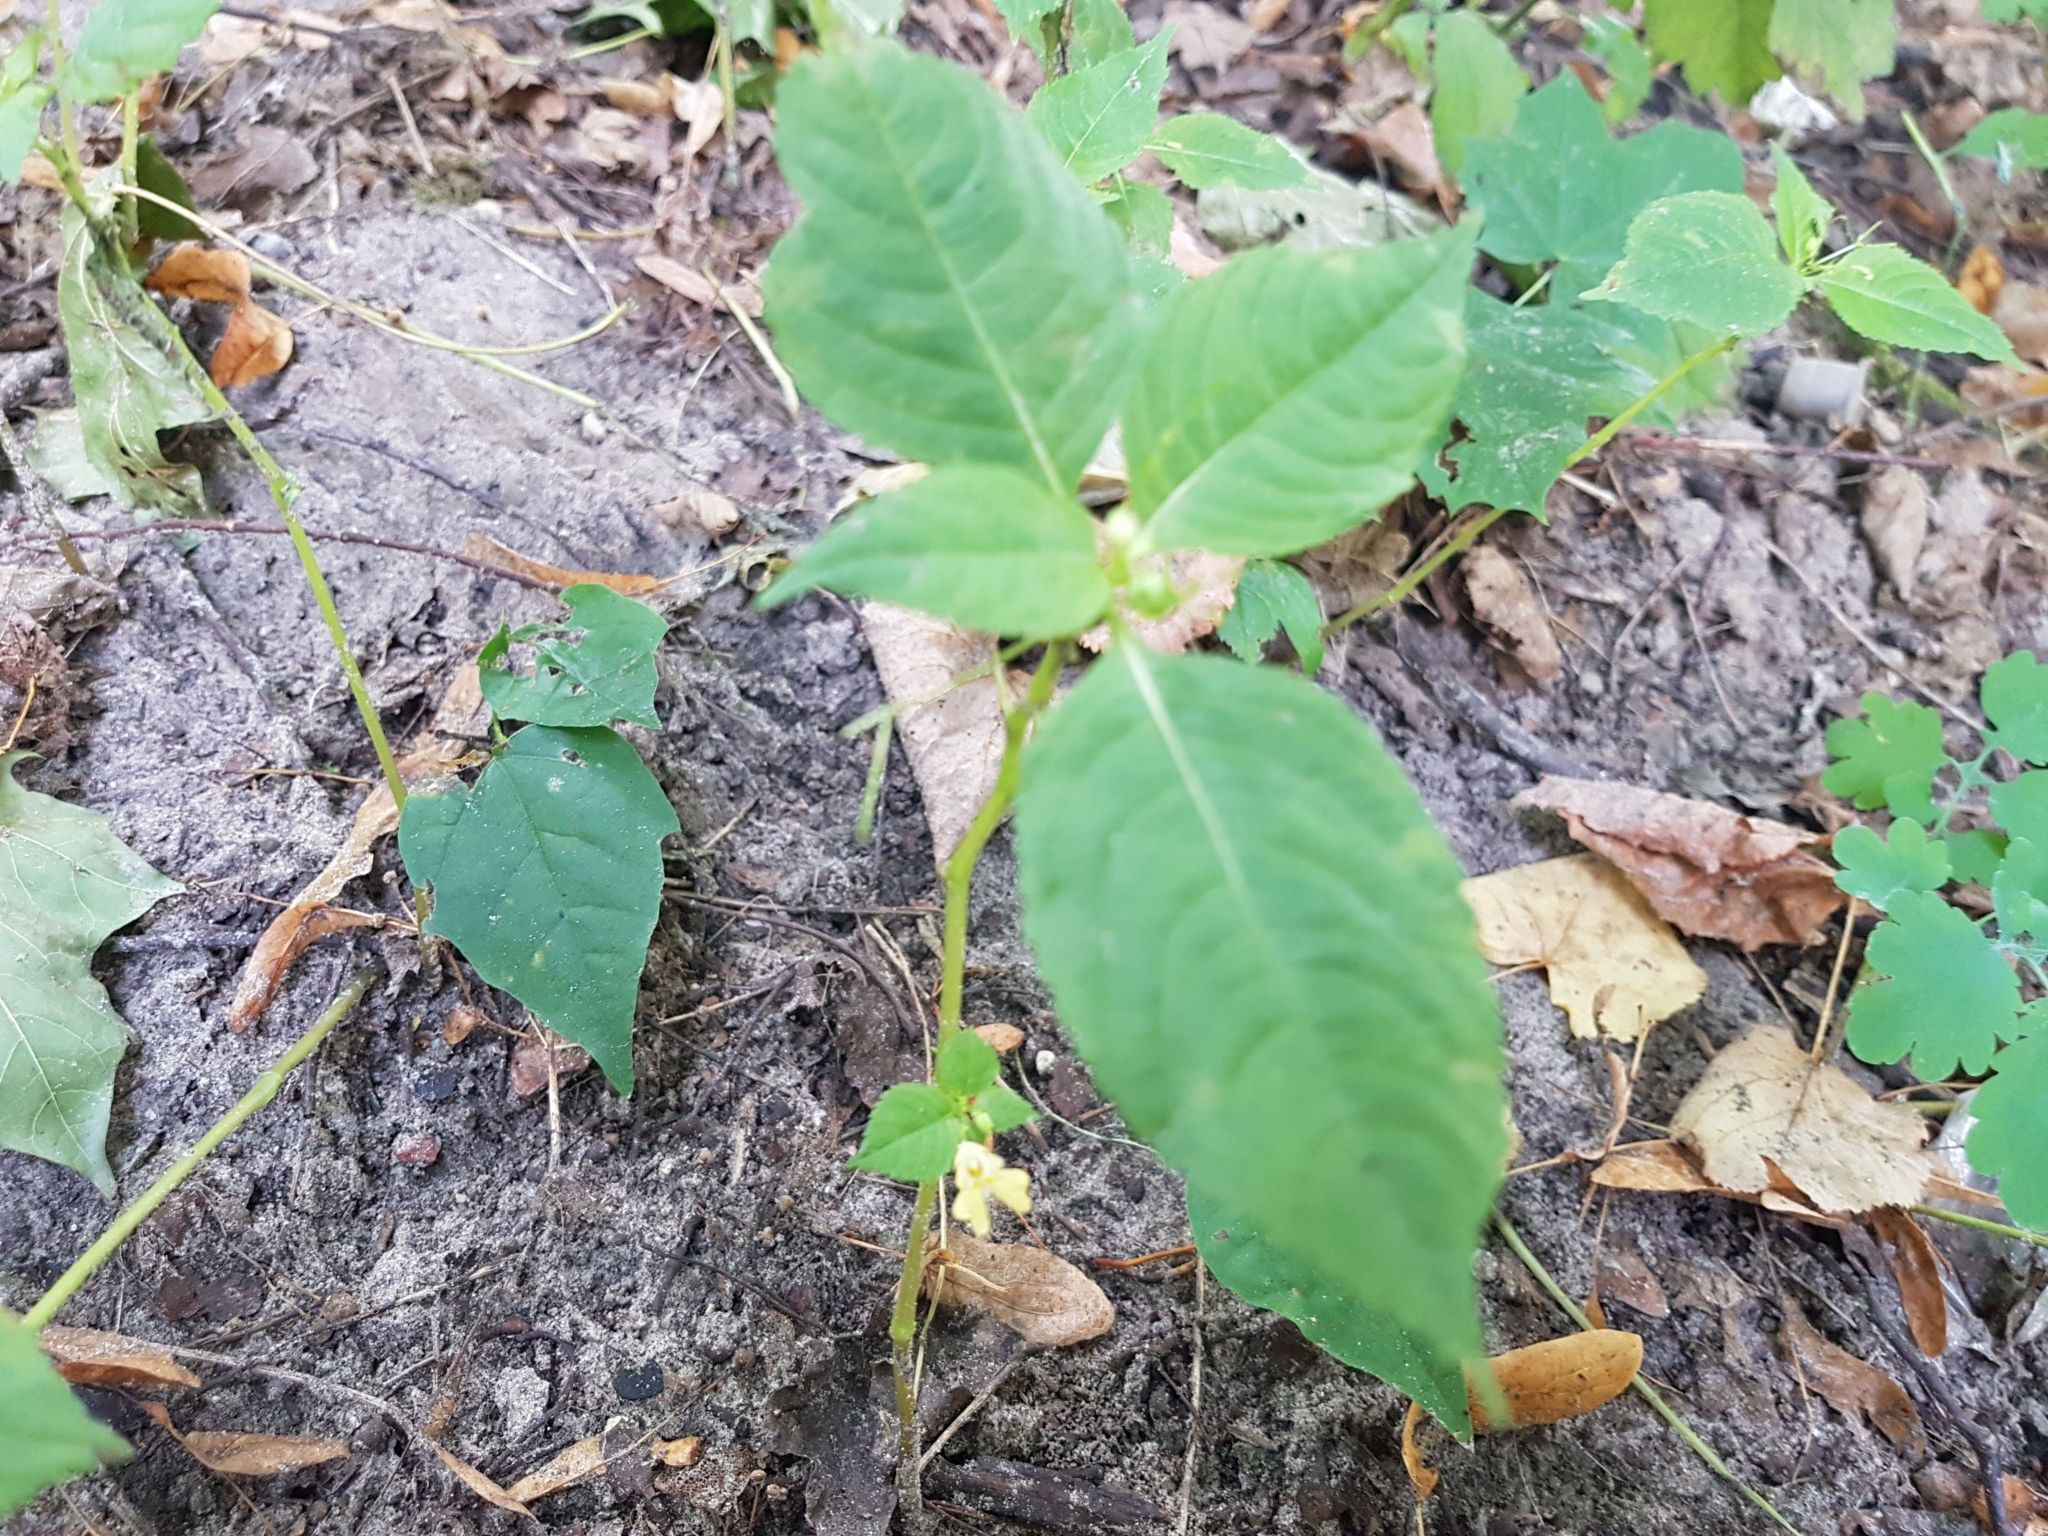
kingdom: Plantae
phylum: Tracheophyta
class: Magnoliopsida
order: Ericales
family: Balsaminaceae
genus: Impatiens
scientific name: Impatiens parviflora
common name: Small balsam
